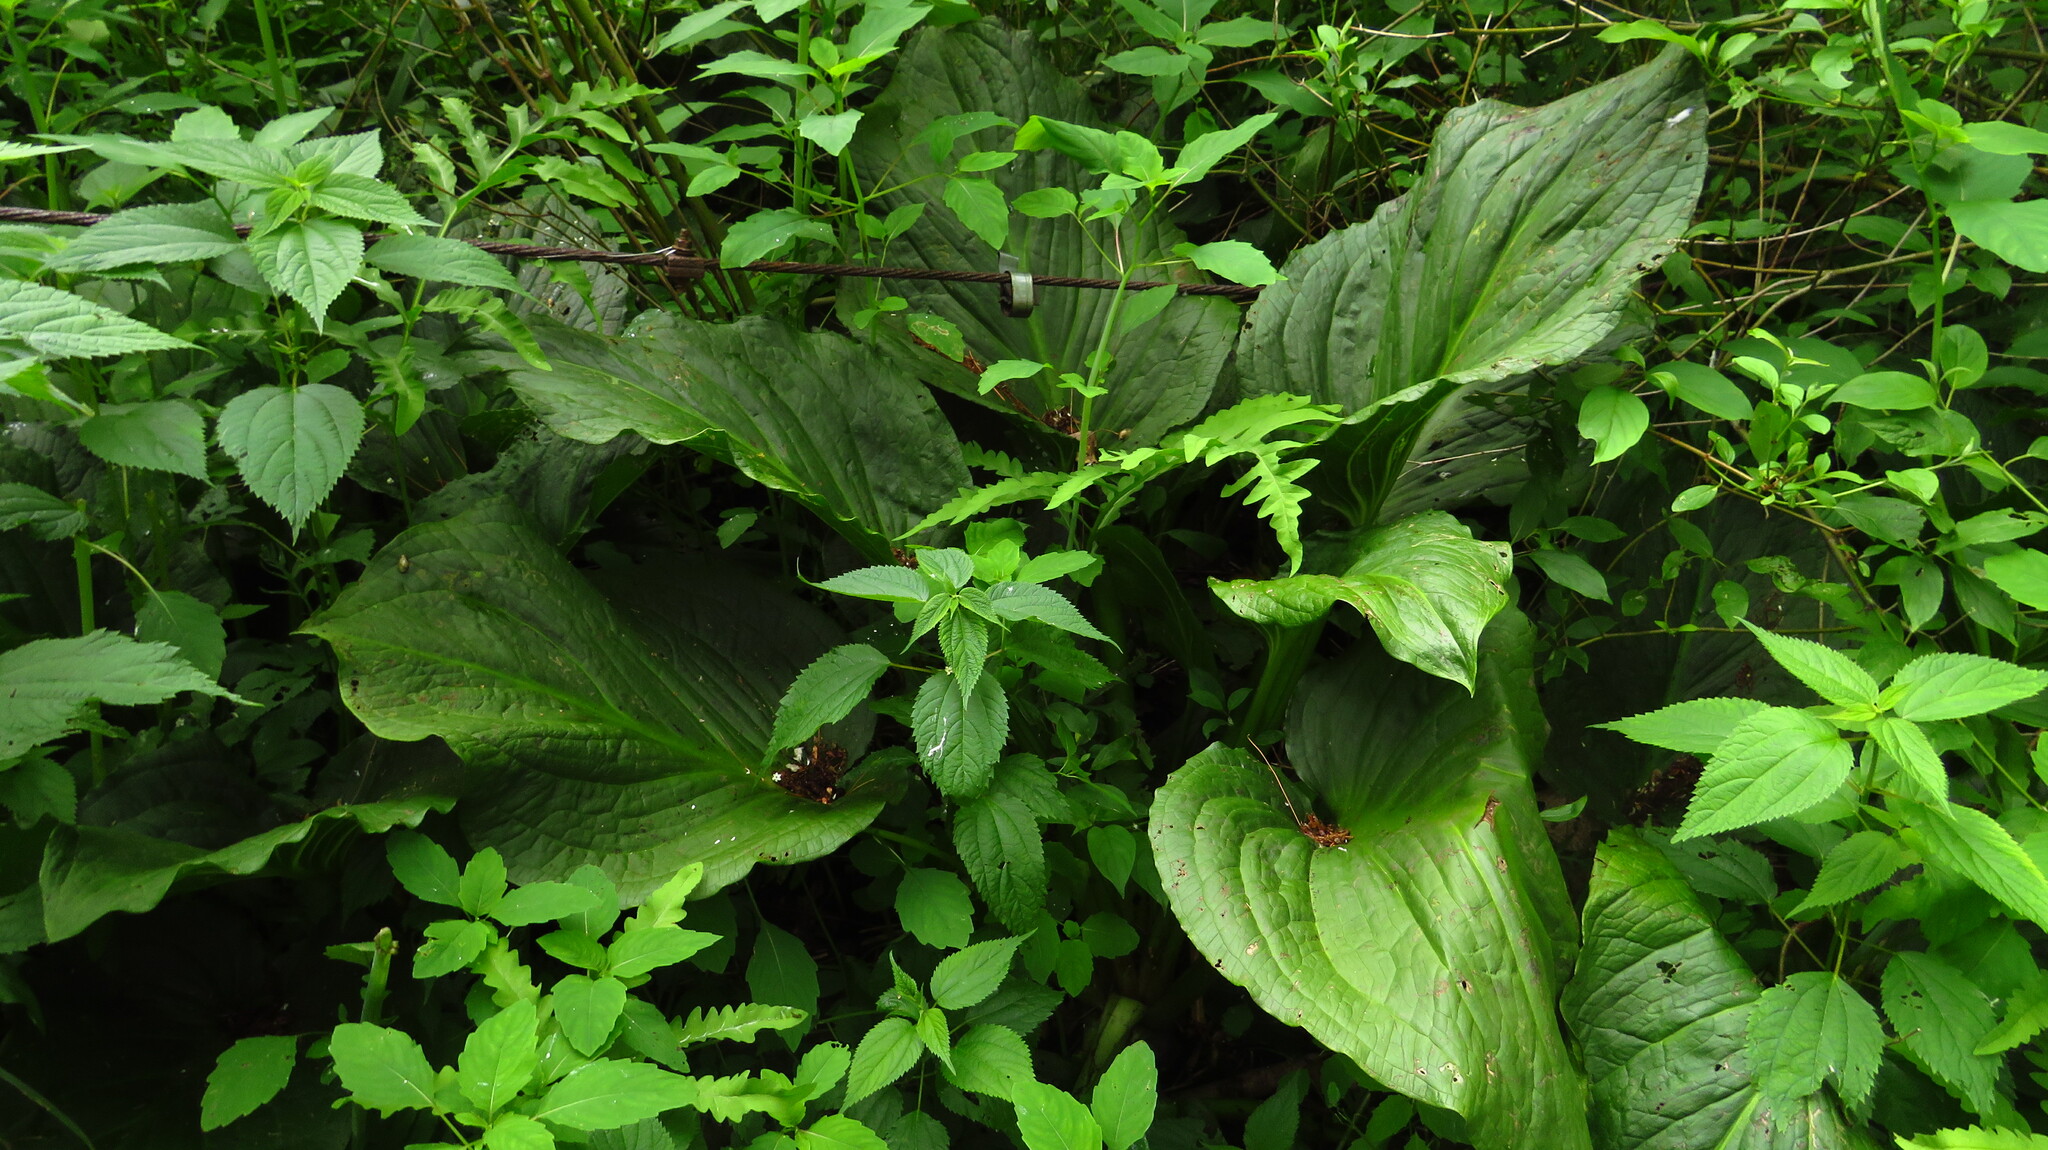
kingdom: Plantae
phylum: Tracheophyta
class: Liliopsida
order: Alismatales
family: Araceae
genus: Symplocarpus
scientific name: Symplocarpus foetidus
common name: Eastern skunk cabbage
